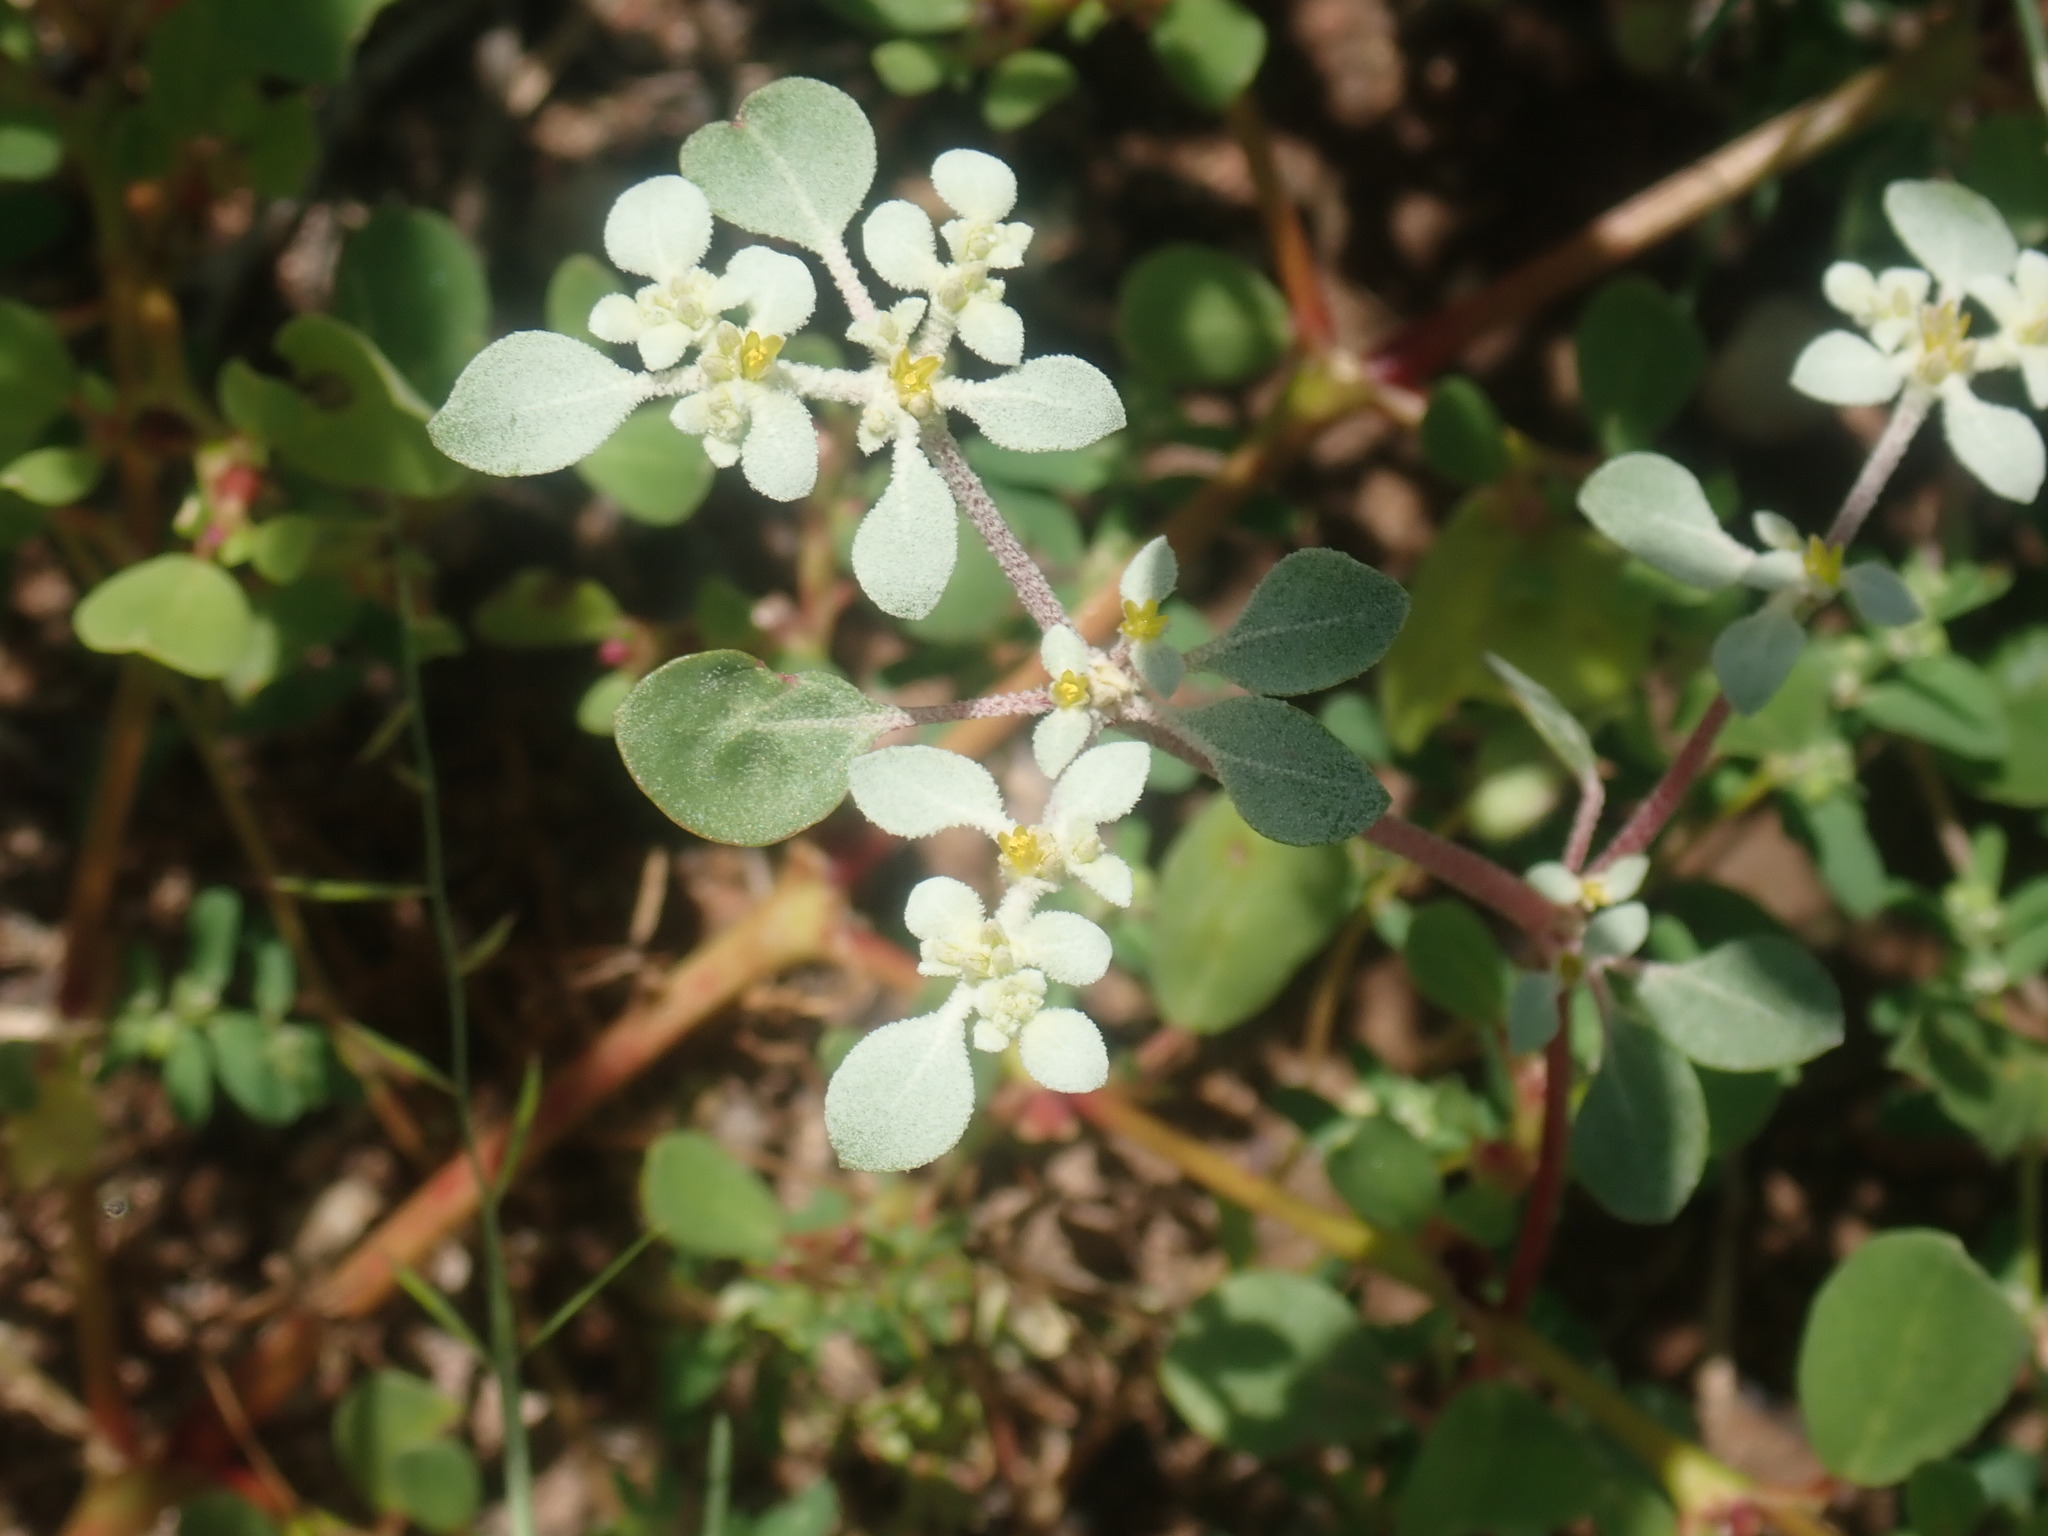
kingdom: Plantae
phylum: Tracheophyta
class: Magnoliopsida
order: Caryophyllales
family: Amaranthaceae
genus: Tidestromia
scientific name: Tidestromia lanuginosa
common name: Woolly tidestromia
